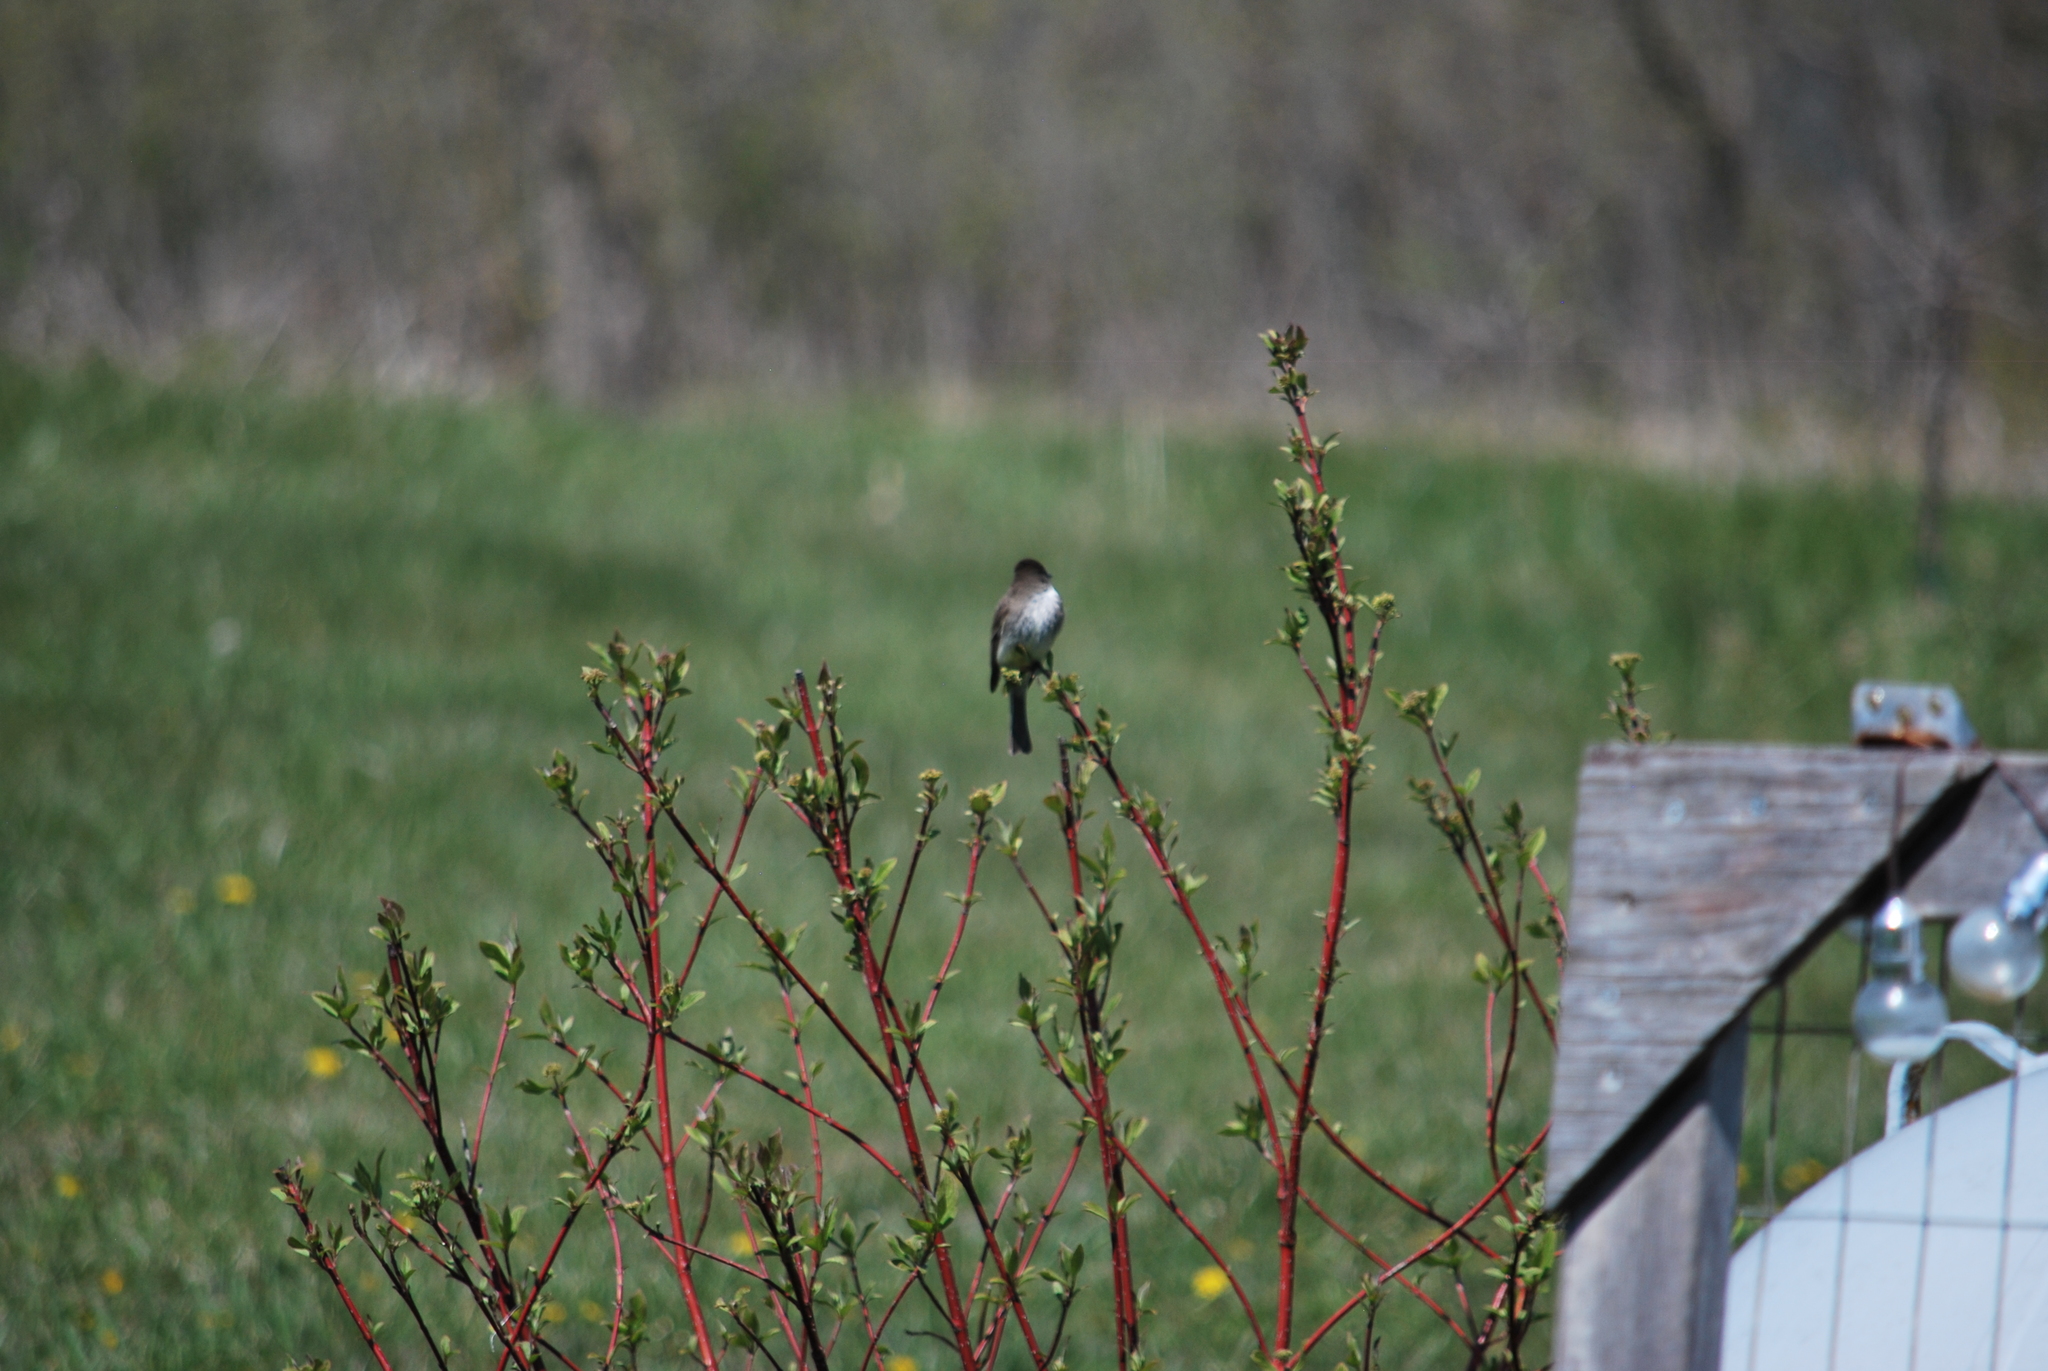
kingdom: Animalia
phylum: Chordata
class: Aves
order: Passeriformes
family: Tyrannidae
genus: Sayornis
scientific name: Sayornis phoebe
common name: Eastern phoebe
